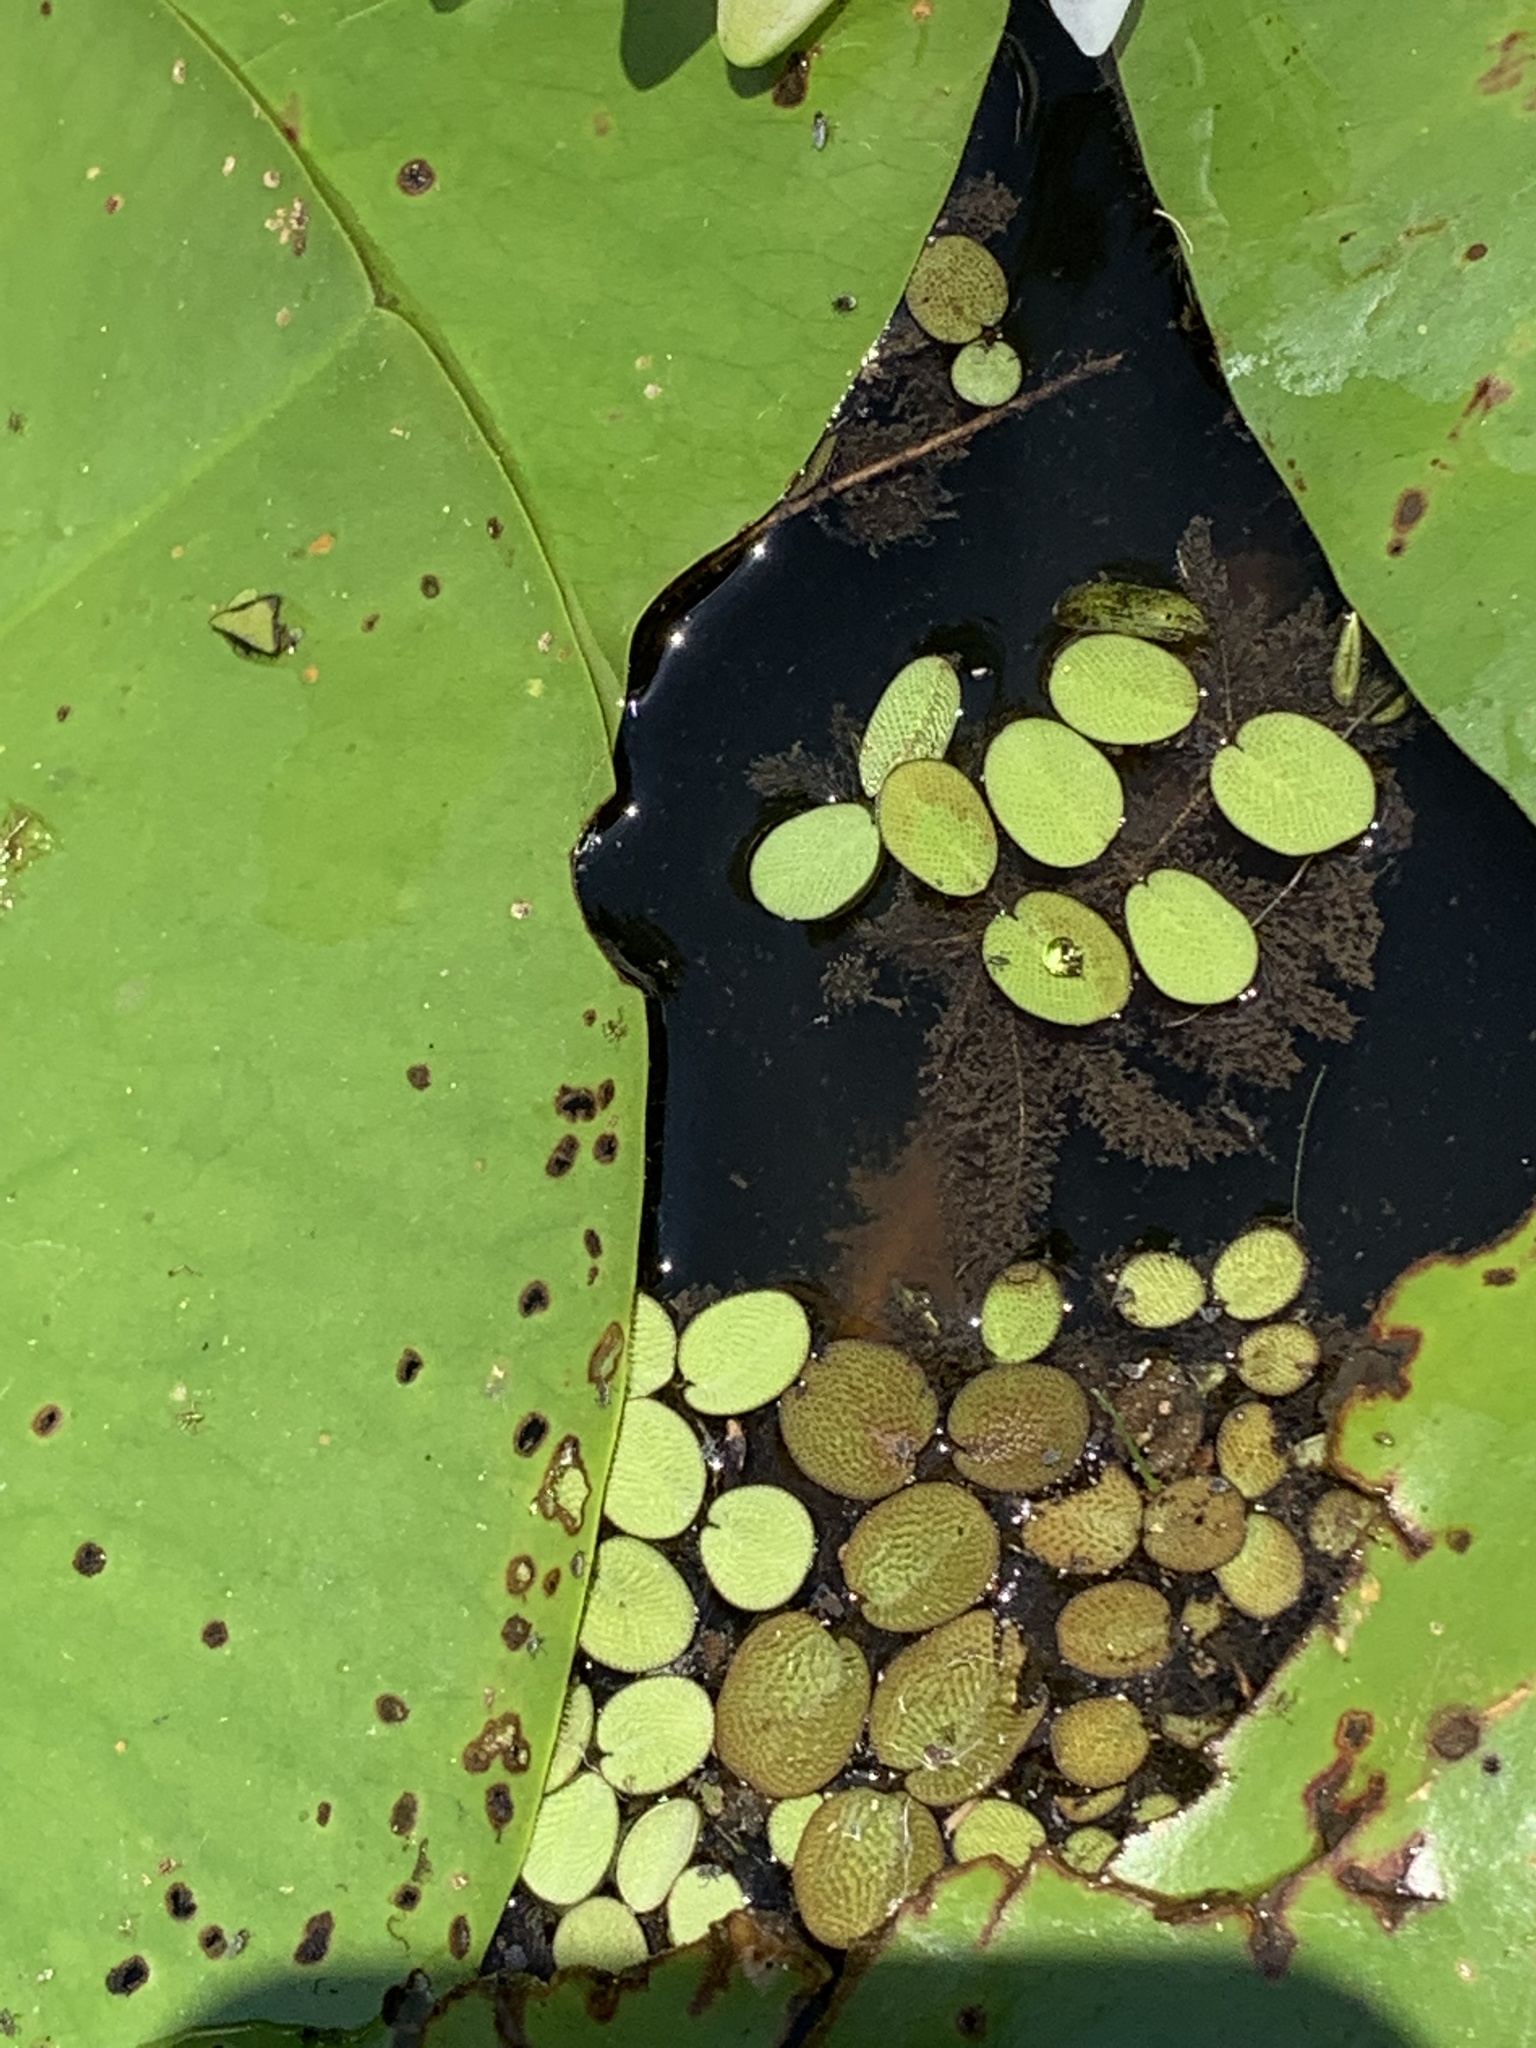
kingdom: Plantae
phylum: Tracheophyta
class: Polypodiopsida
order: Salviniales
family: Salviniaceae
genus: Salvinia
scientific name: Salvinia minima
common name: Water spangles
